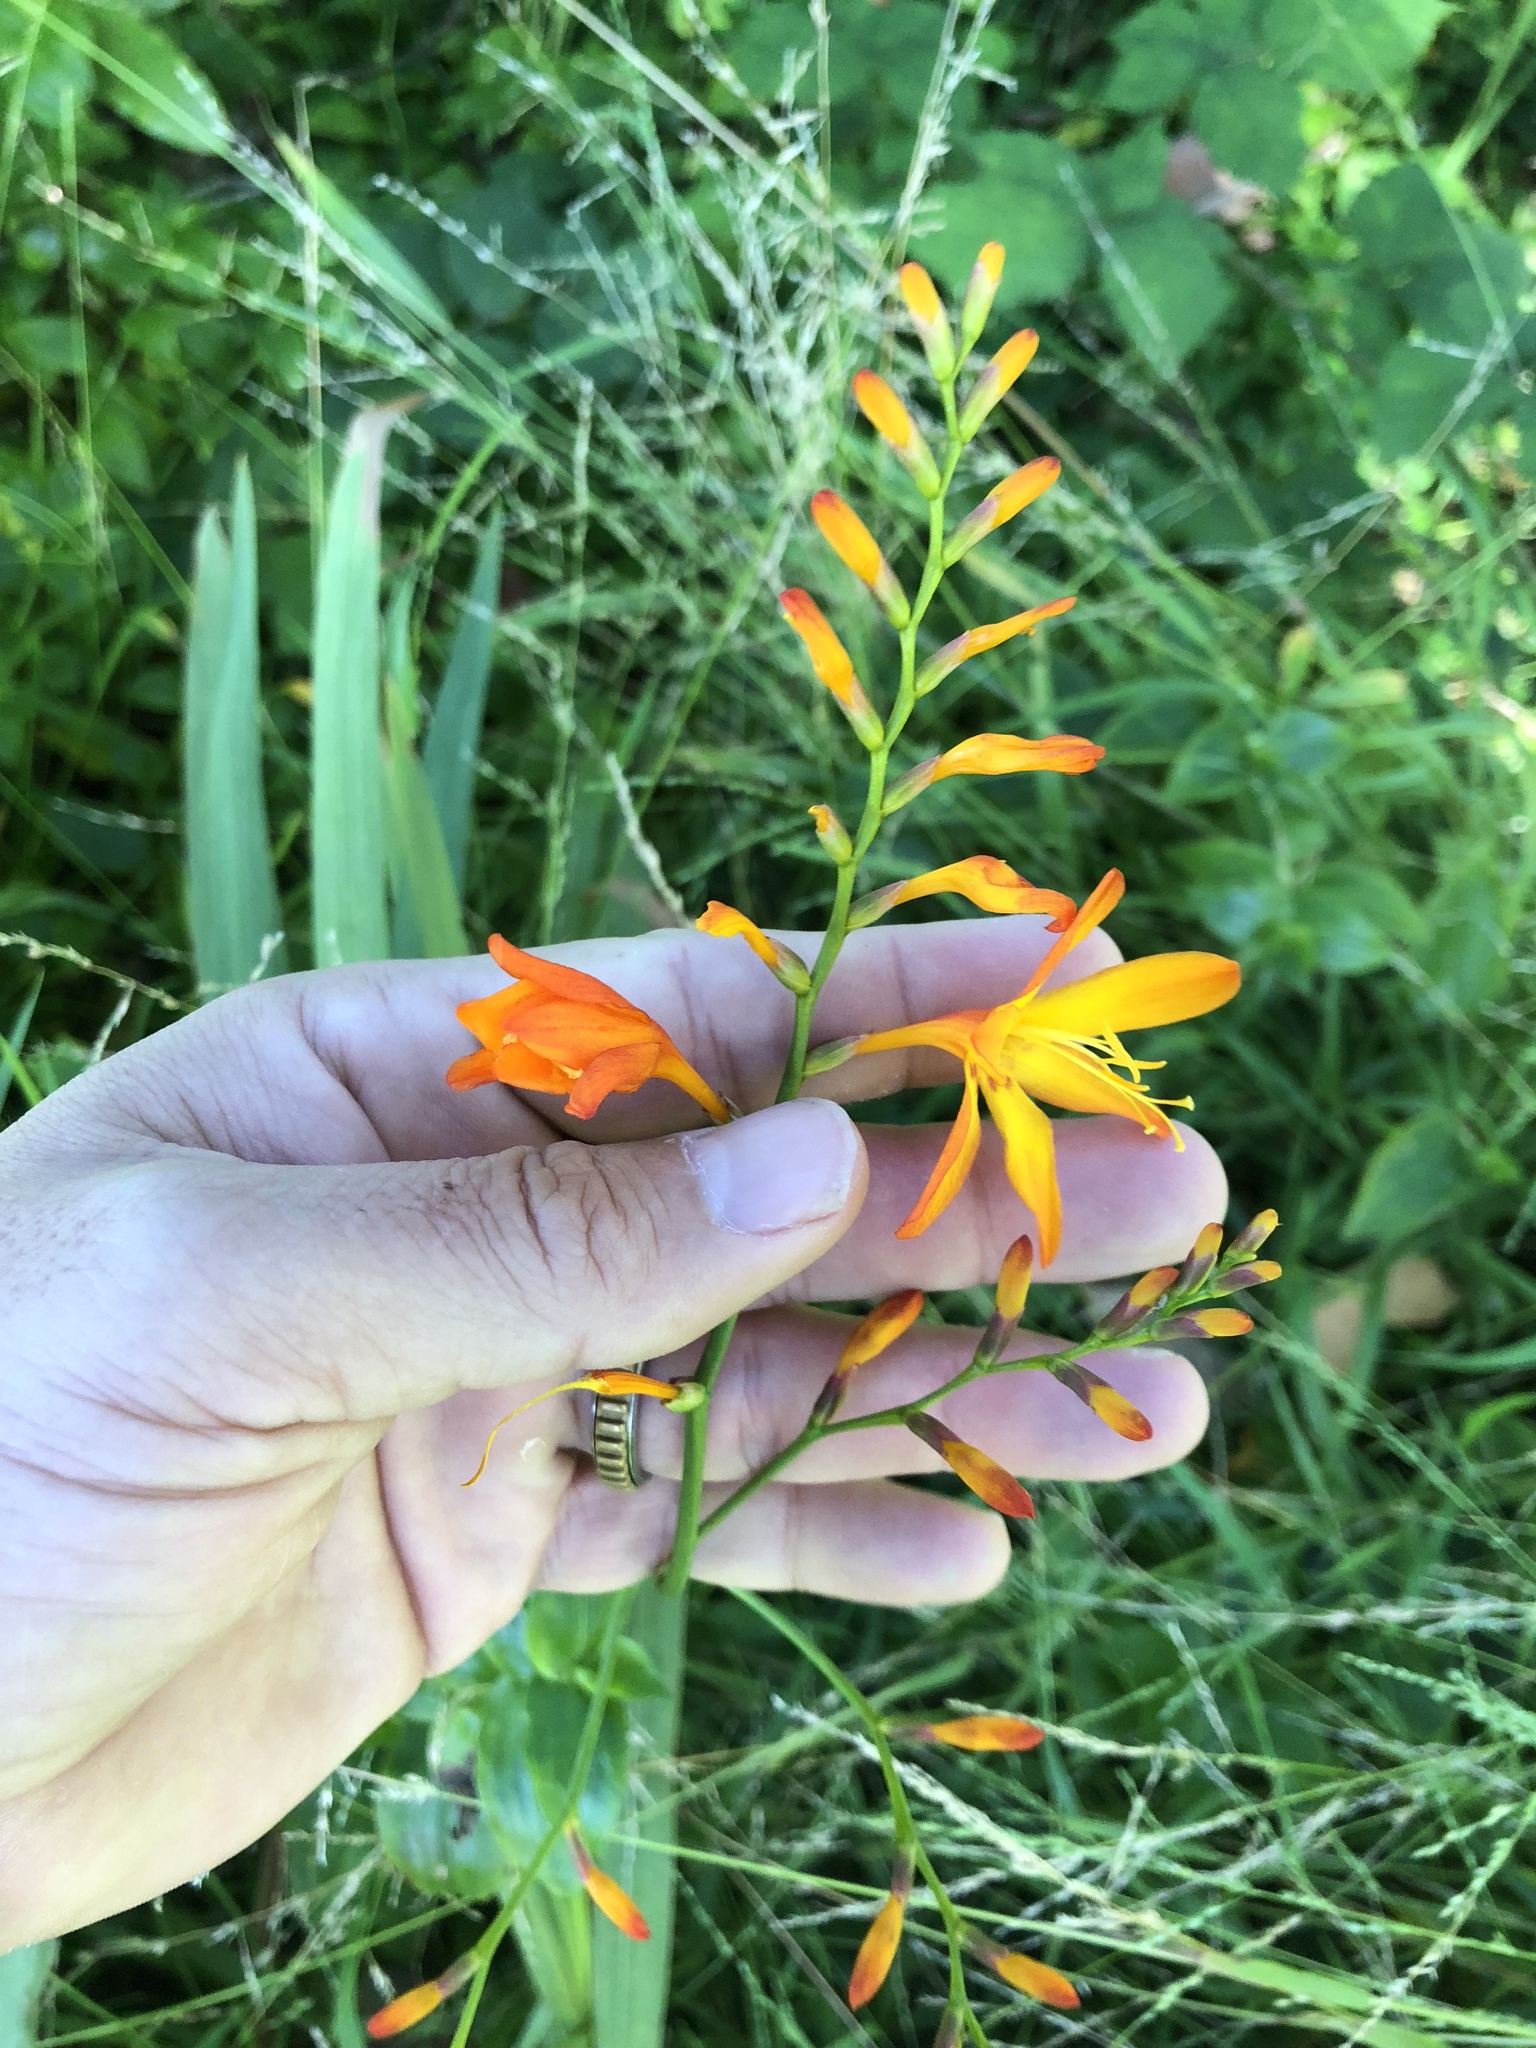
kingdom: Plantae
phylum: Tracheophyta
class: Liliopsida
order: Asparagales
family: Iridaceae
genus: Crocosmia
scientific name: Crocosmia crocosmiiflora
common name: Montbretia
